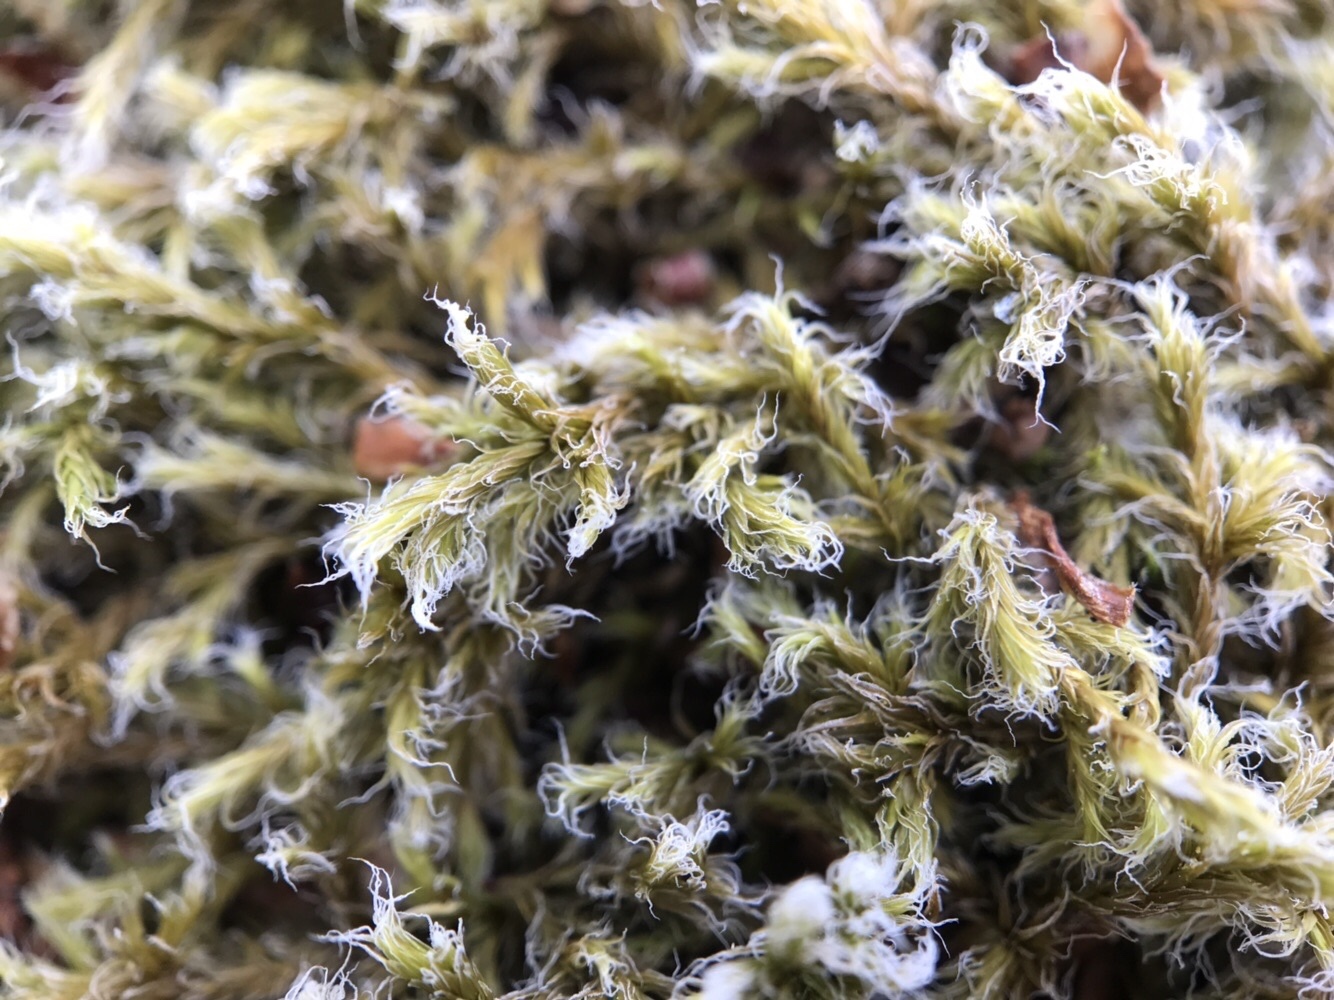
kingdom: Plantae
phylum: Bryophyta
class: Bryopsida
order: Grimmiales
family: Grimmiaceae
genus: Racomitrium
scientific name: Racomitrium lanuginosum
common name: Hoary rock moss
